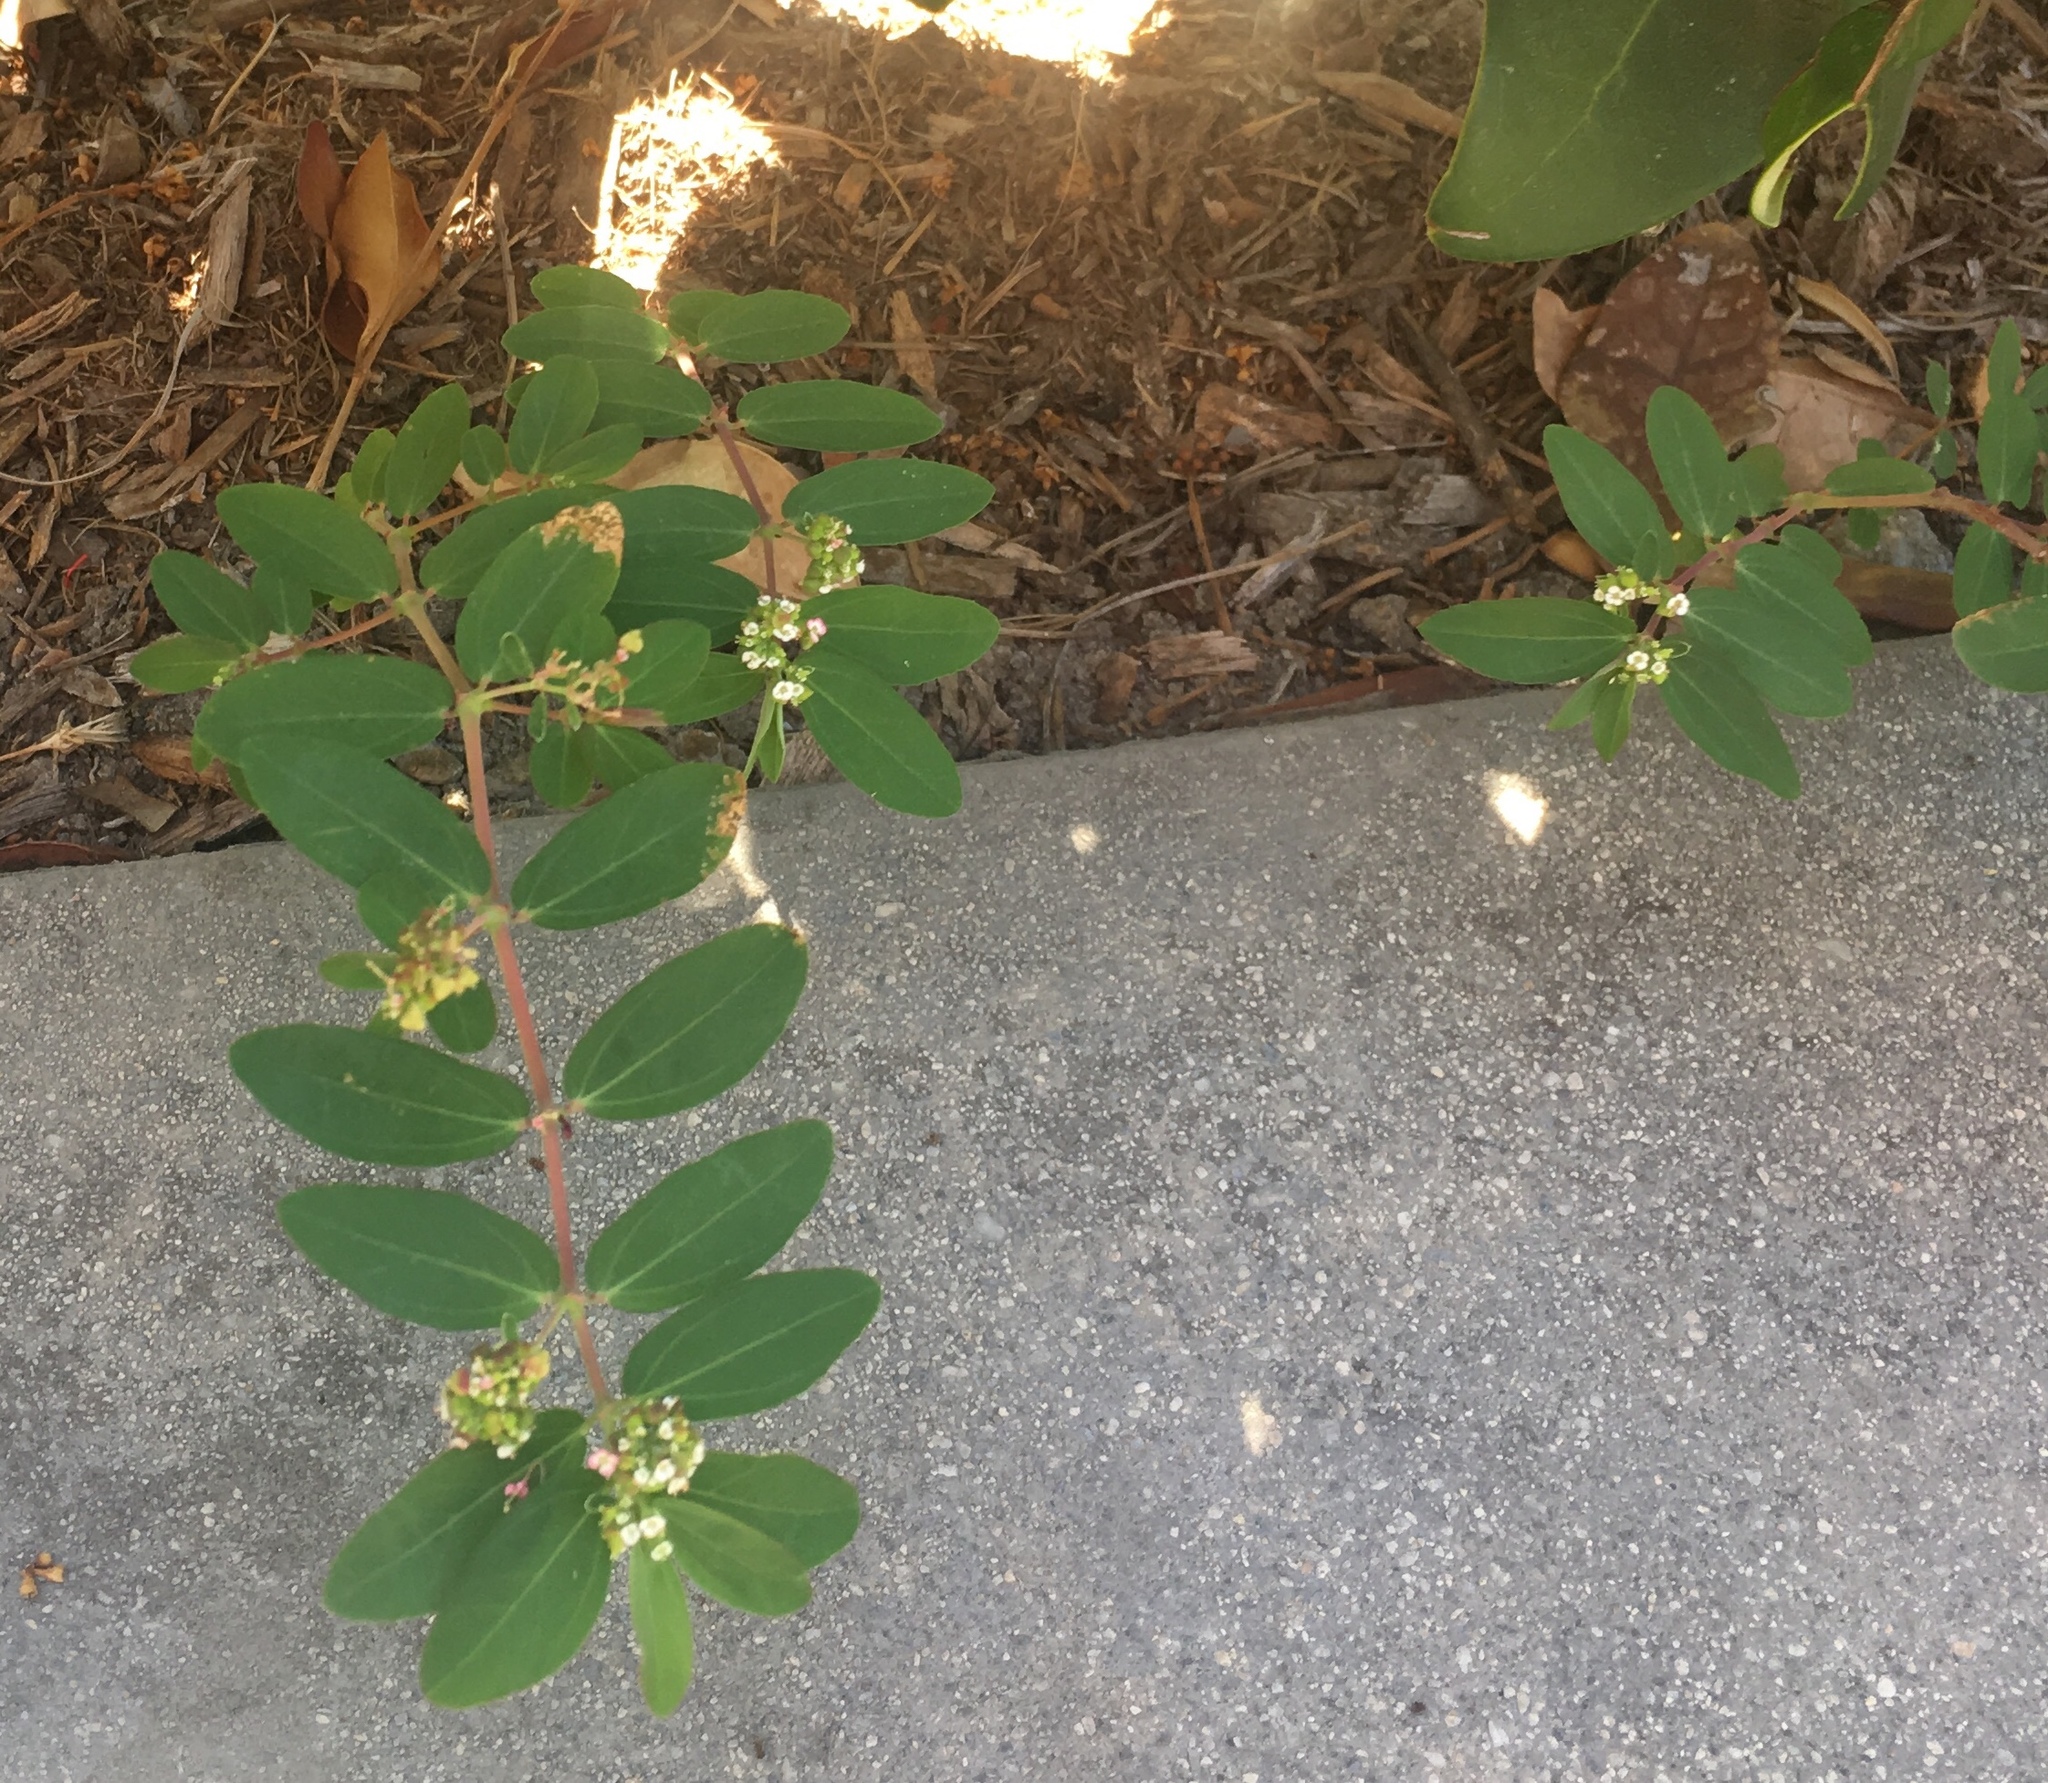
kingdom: Plantae
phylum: Tracheophyta
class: Magnoliopsida
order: Malpighiales
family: Euphorbiaceae
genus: Euphorbia
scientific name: Euphorbia hypericifolia
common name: Graceful sandmat
